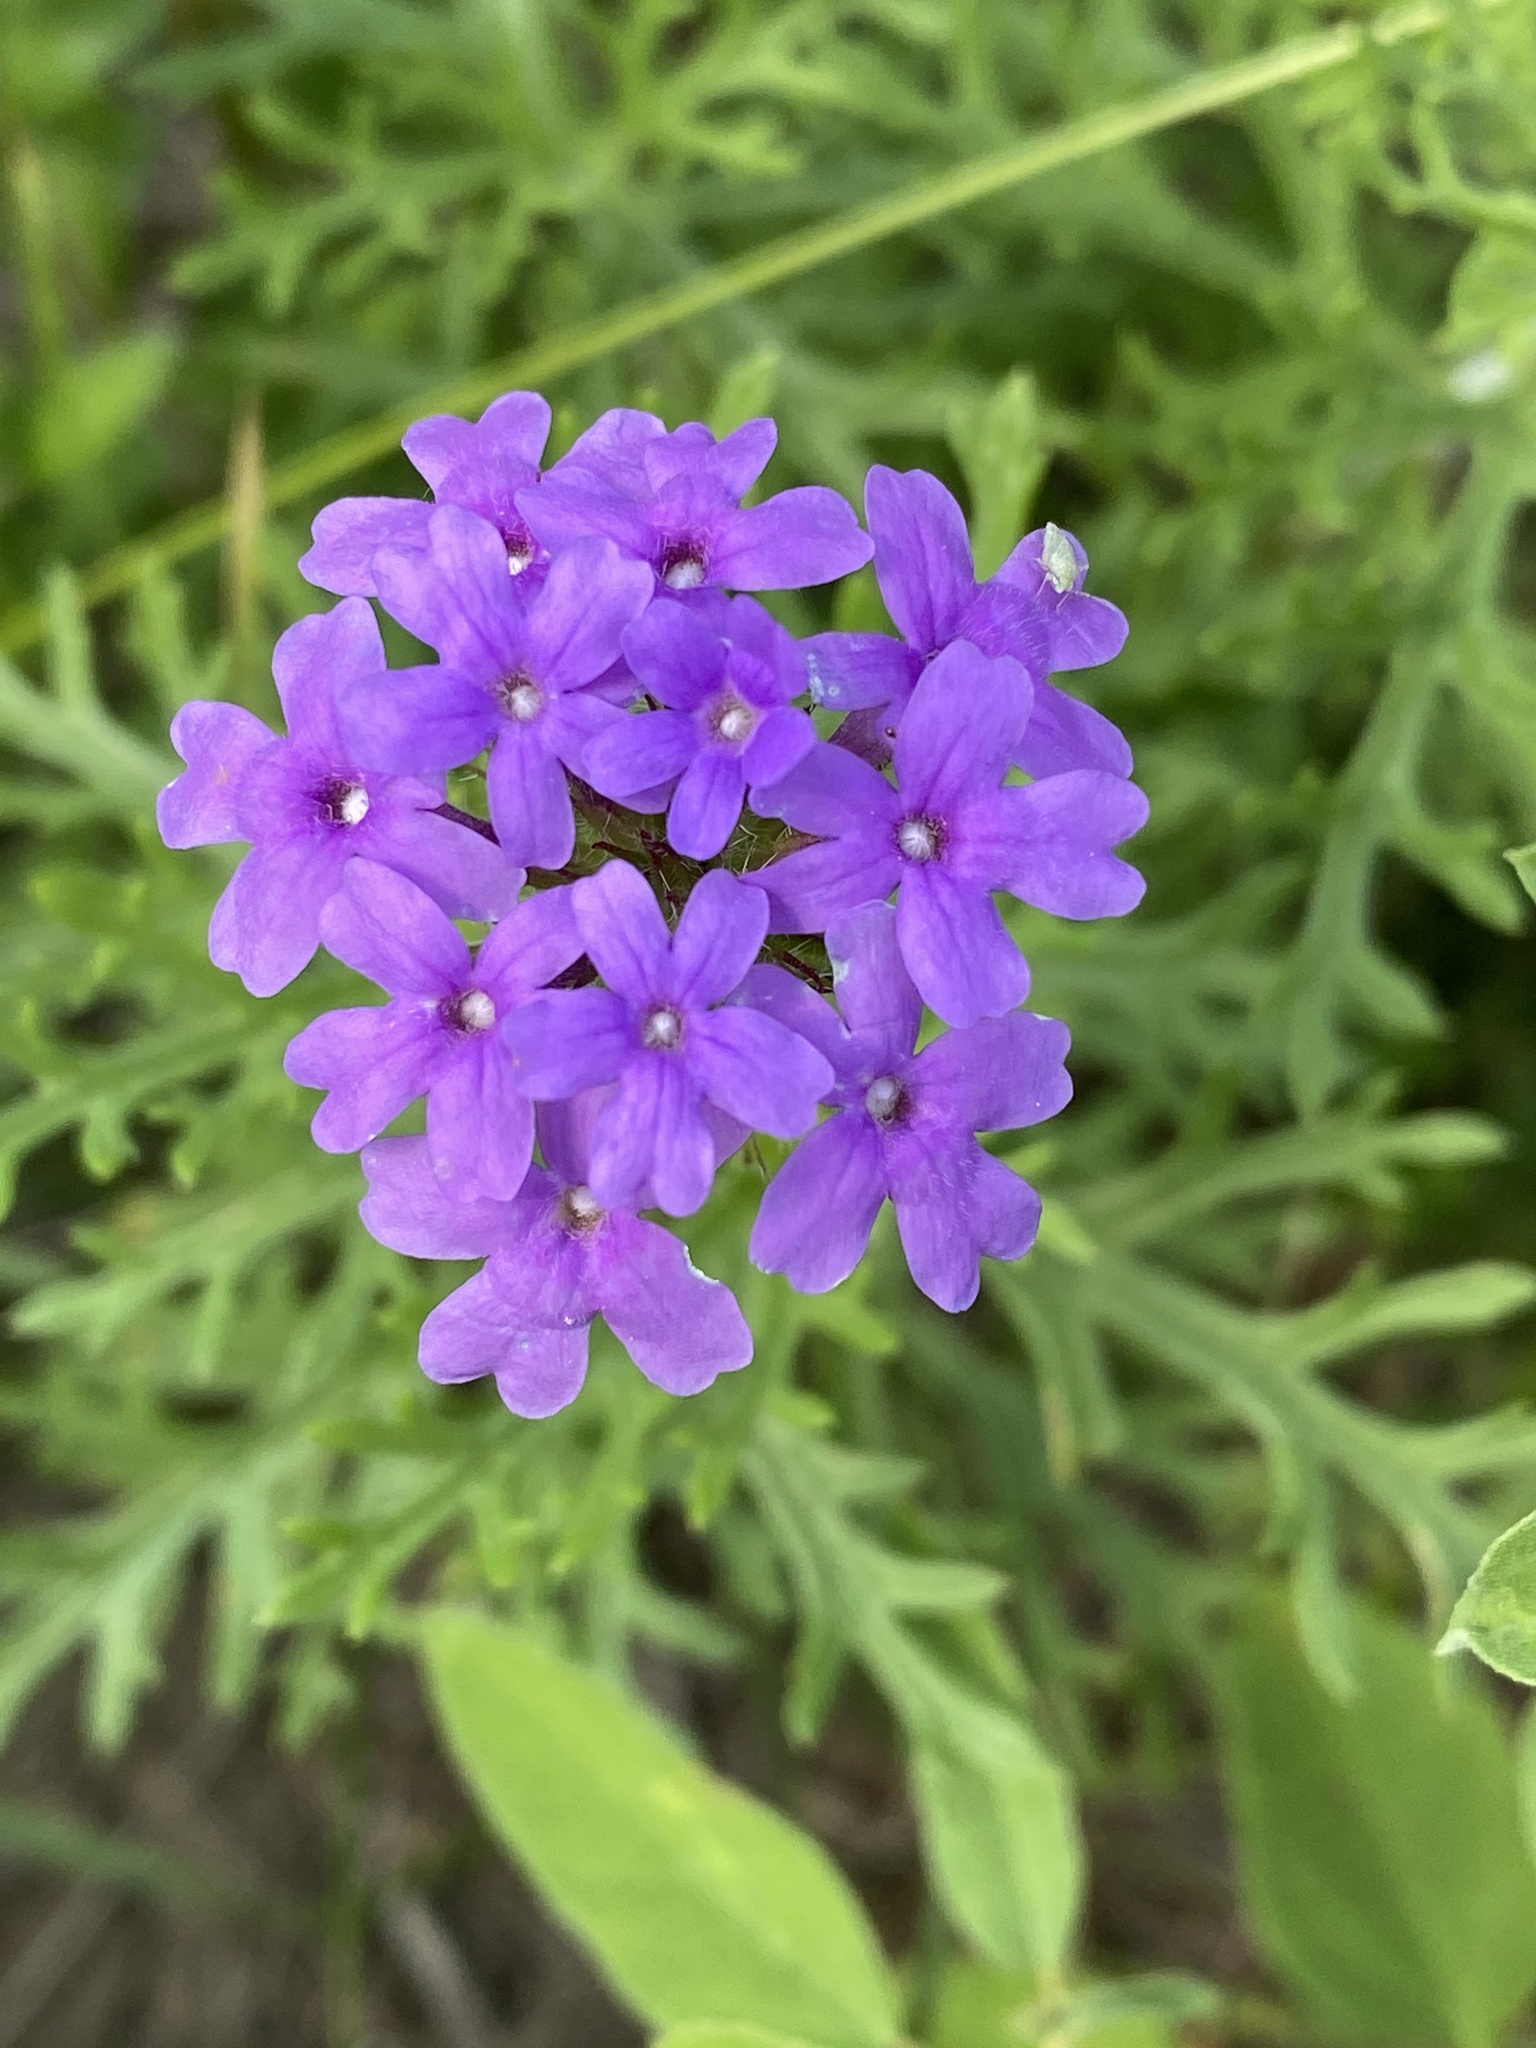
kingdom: Plantae
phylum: Tracheophyta
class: Magnoliopsida
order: Lamiales
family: Verbenaceae
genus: Verbena
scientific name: Verbena bipinnatifida
